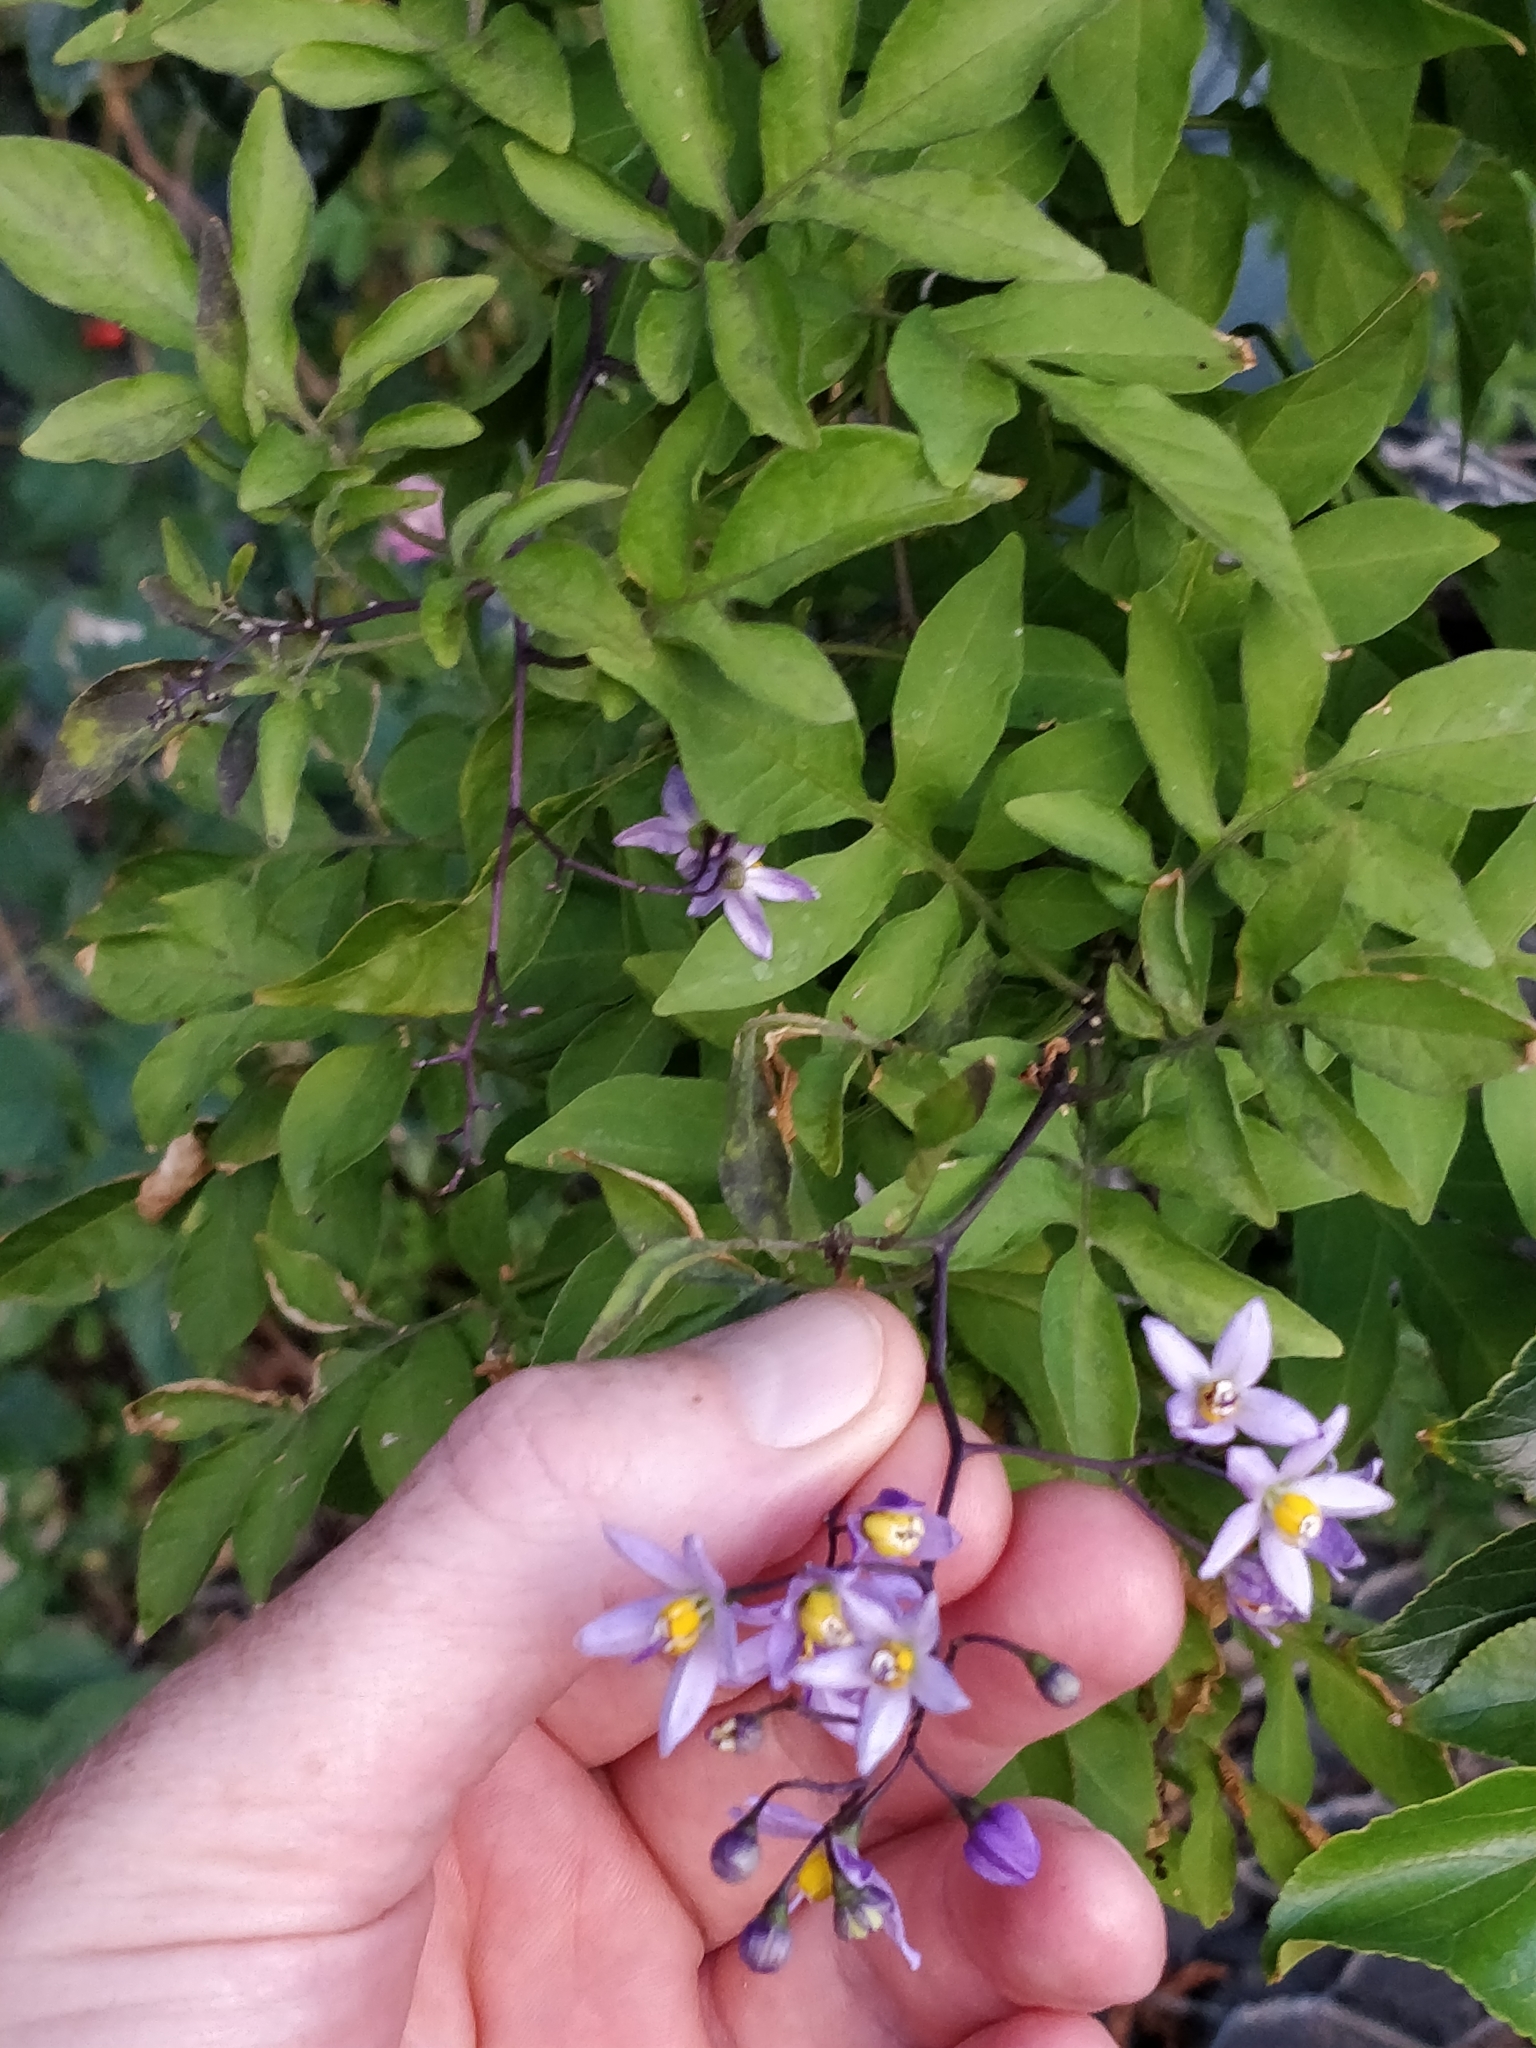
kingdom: Plantae
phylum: Tracheophyta
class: Magnoliopsida
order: Solanales
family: Solanaceae
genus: Solanum
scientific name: Solanum seaforthianum
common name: Brazilian nightshade
